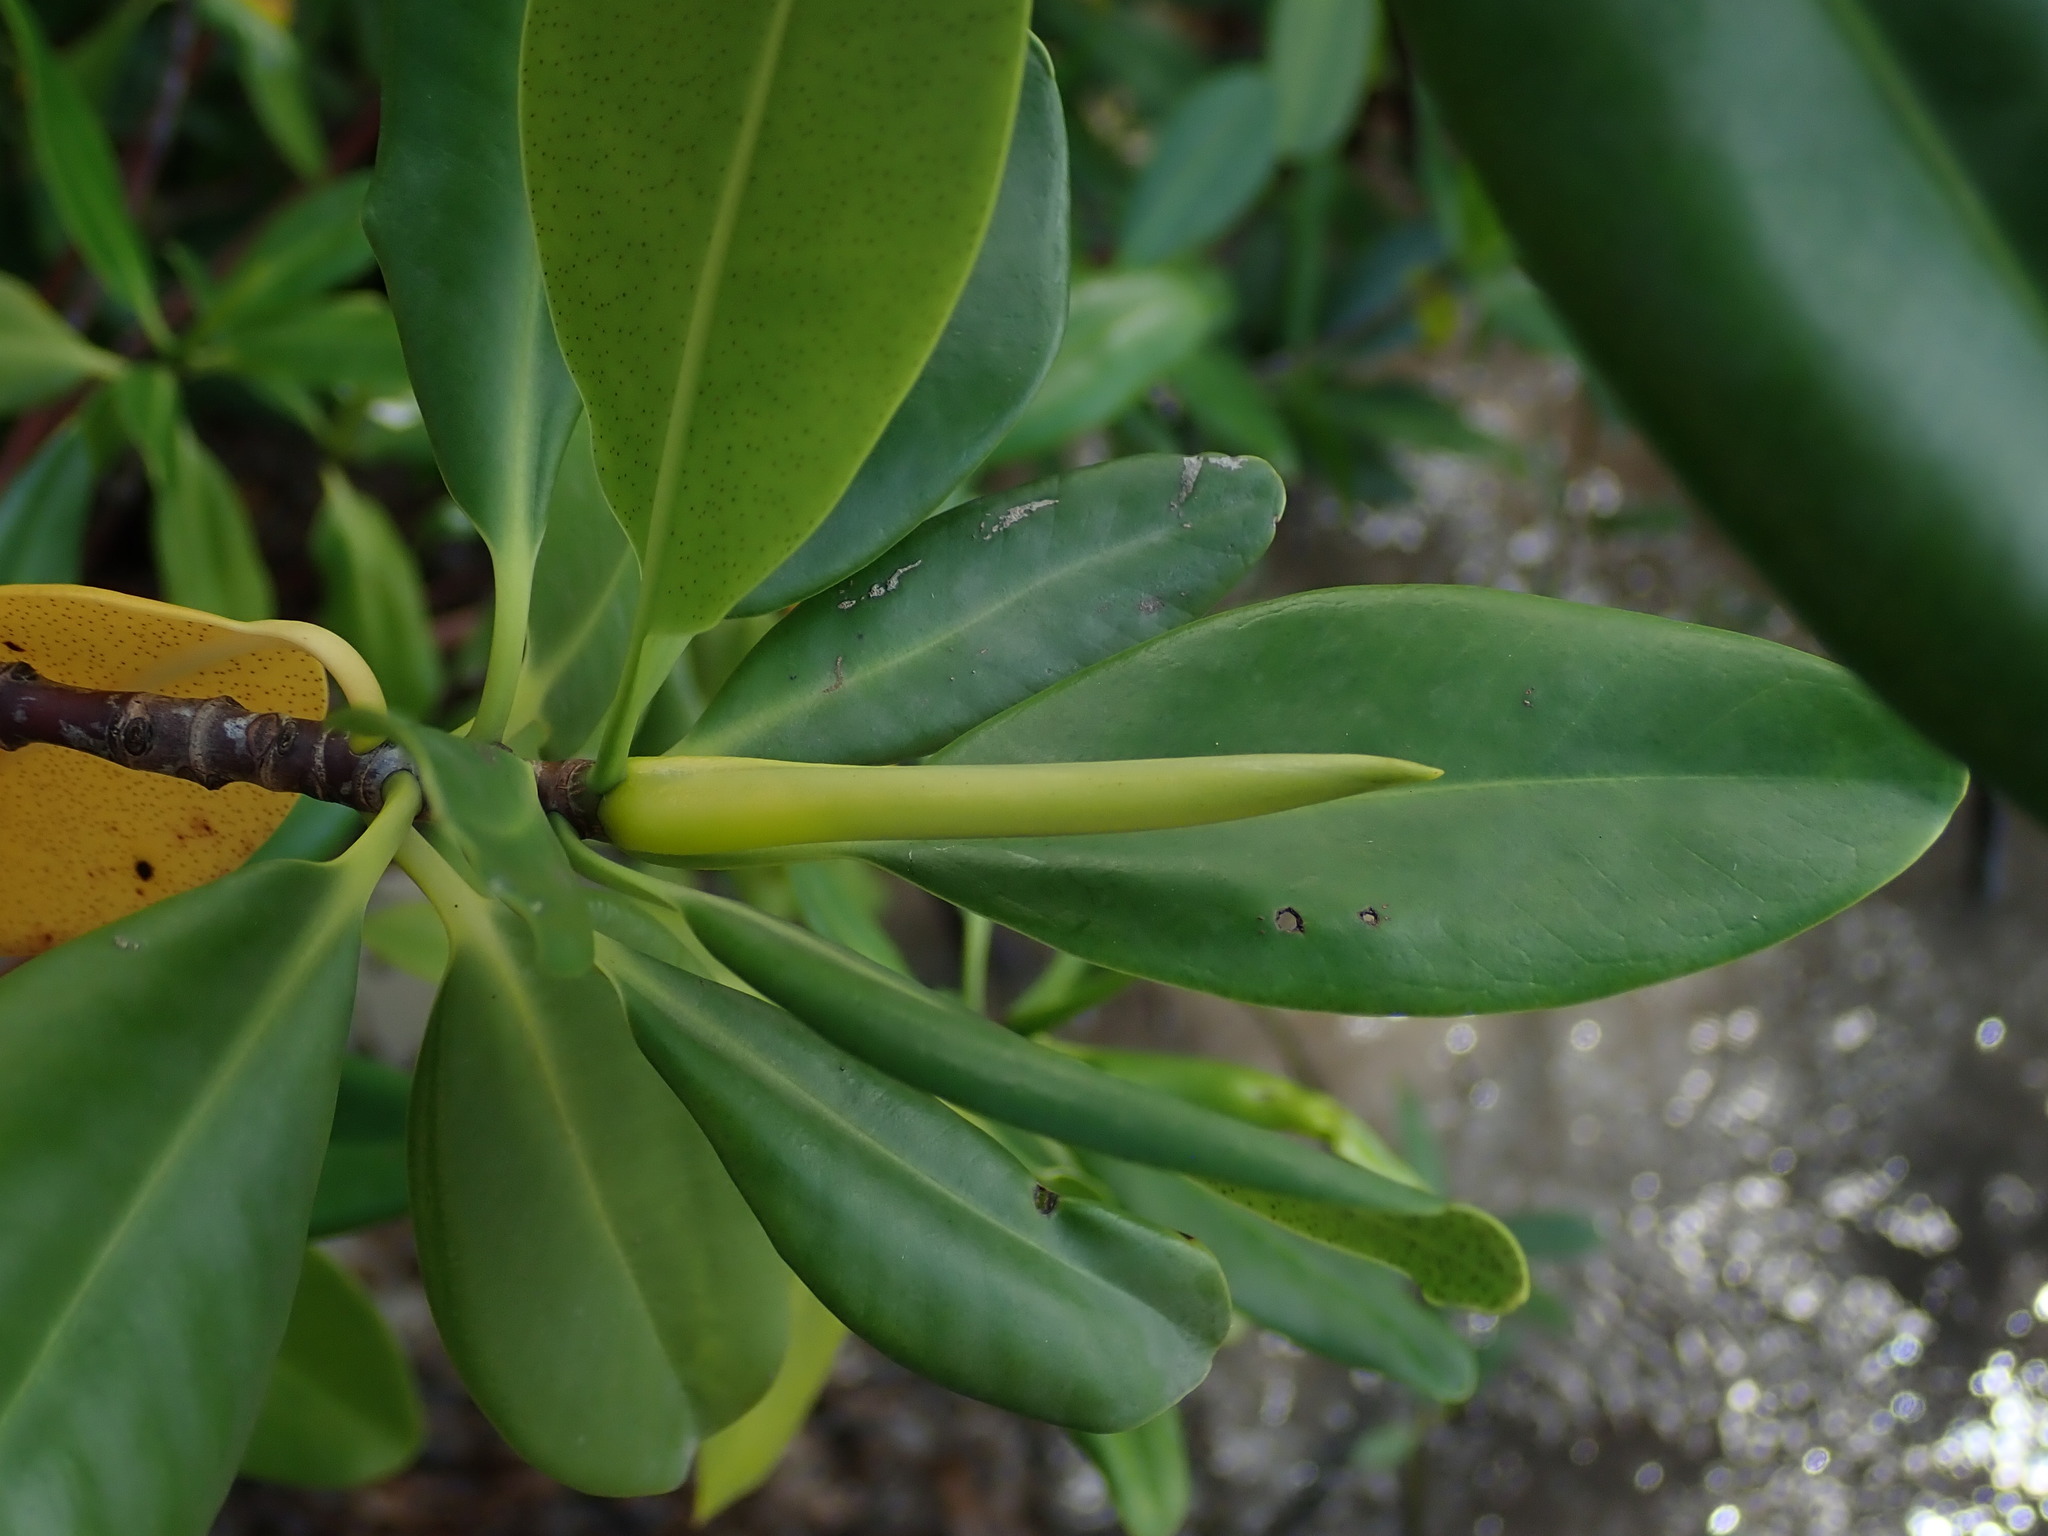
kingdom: Plantae
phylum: Tracheophyta
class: Magnoliopsida
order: Malpighiales
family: Rhizophoraceae
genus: Rhizophora
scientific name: Rhizophora mangle
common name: Red mangrove
